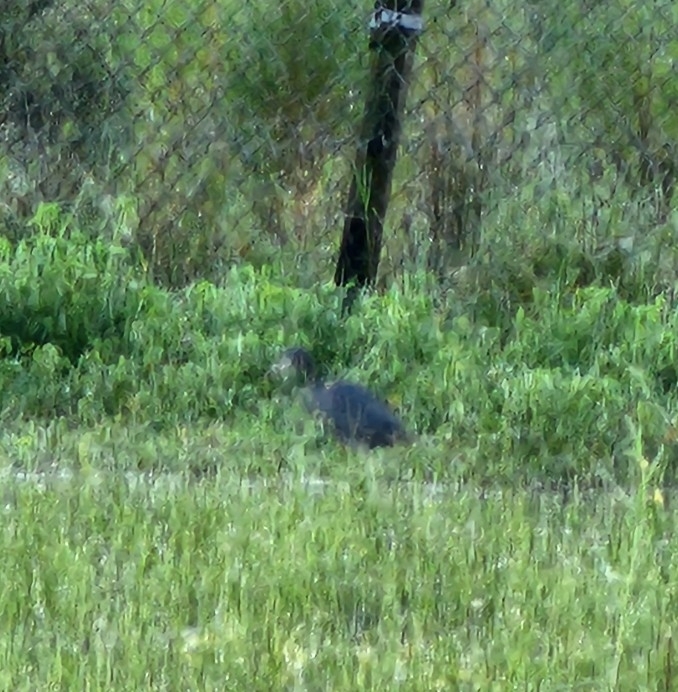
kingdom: Animalia
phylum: Chordata
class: Aves
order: Pelecaniformes
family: Ardeidae
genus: Egretta
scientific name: Egretta caerulea
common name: Little blue heron
